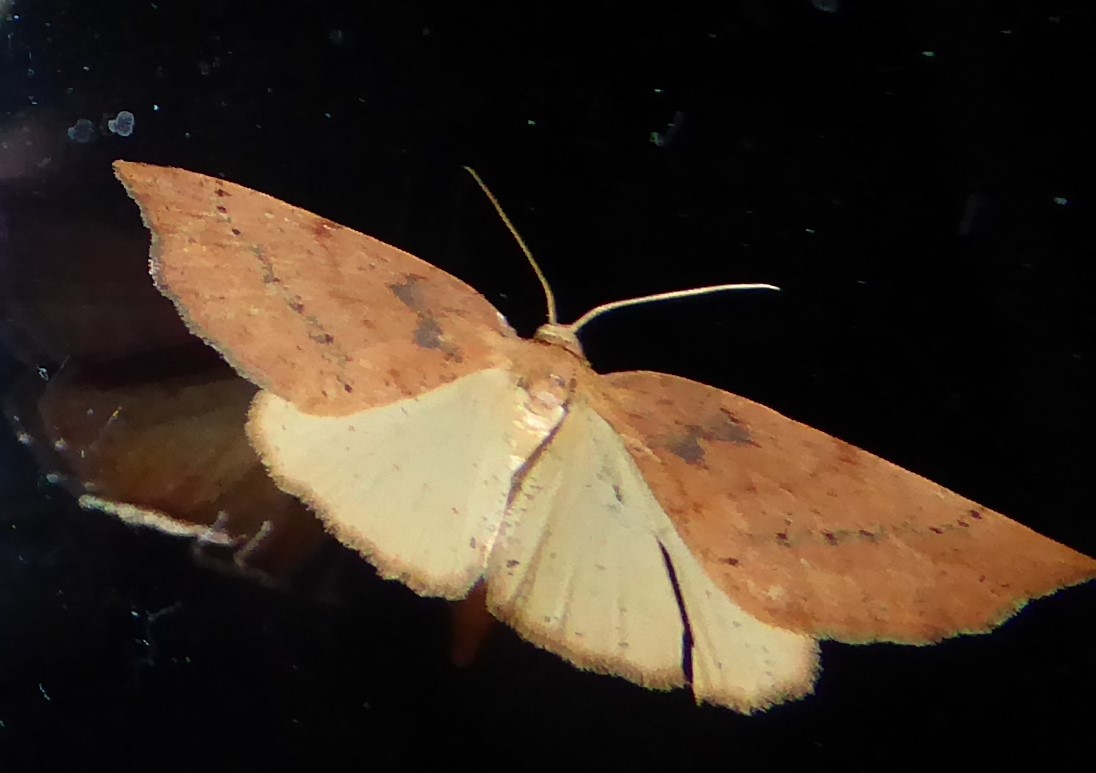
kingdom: Animalia
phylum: Arthropoda
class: Insecta
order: Lepidoptera
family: Geometridae
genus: Sestra
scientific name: Sestra humeraria
